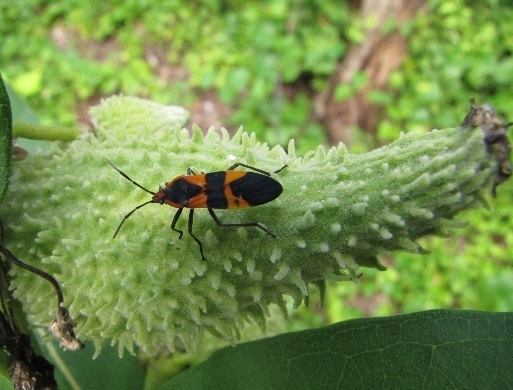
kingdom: Animalia
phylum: Arthropoda
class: Insecta
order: Hemiptera
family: Lygaeidae
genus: Oncopeltus
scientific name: Oncopeltus fasciatus
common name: Large milkweed bug
